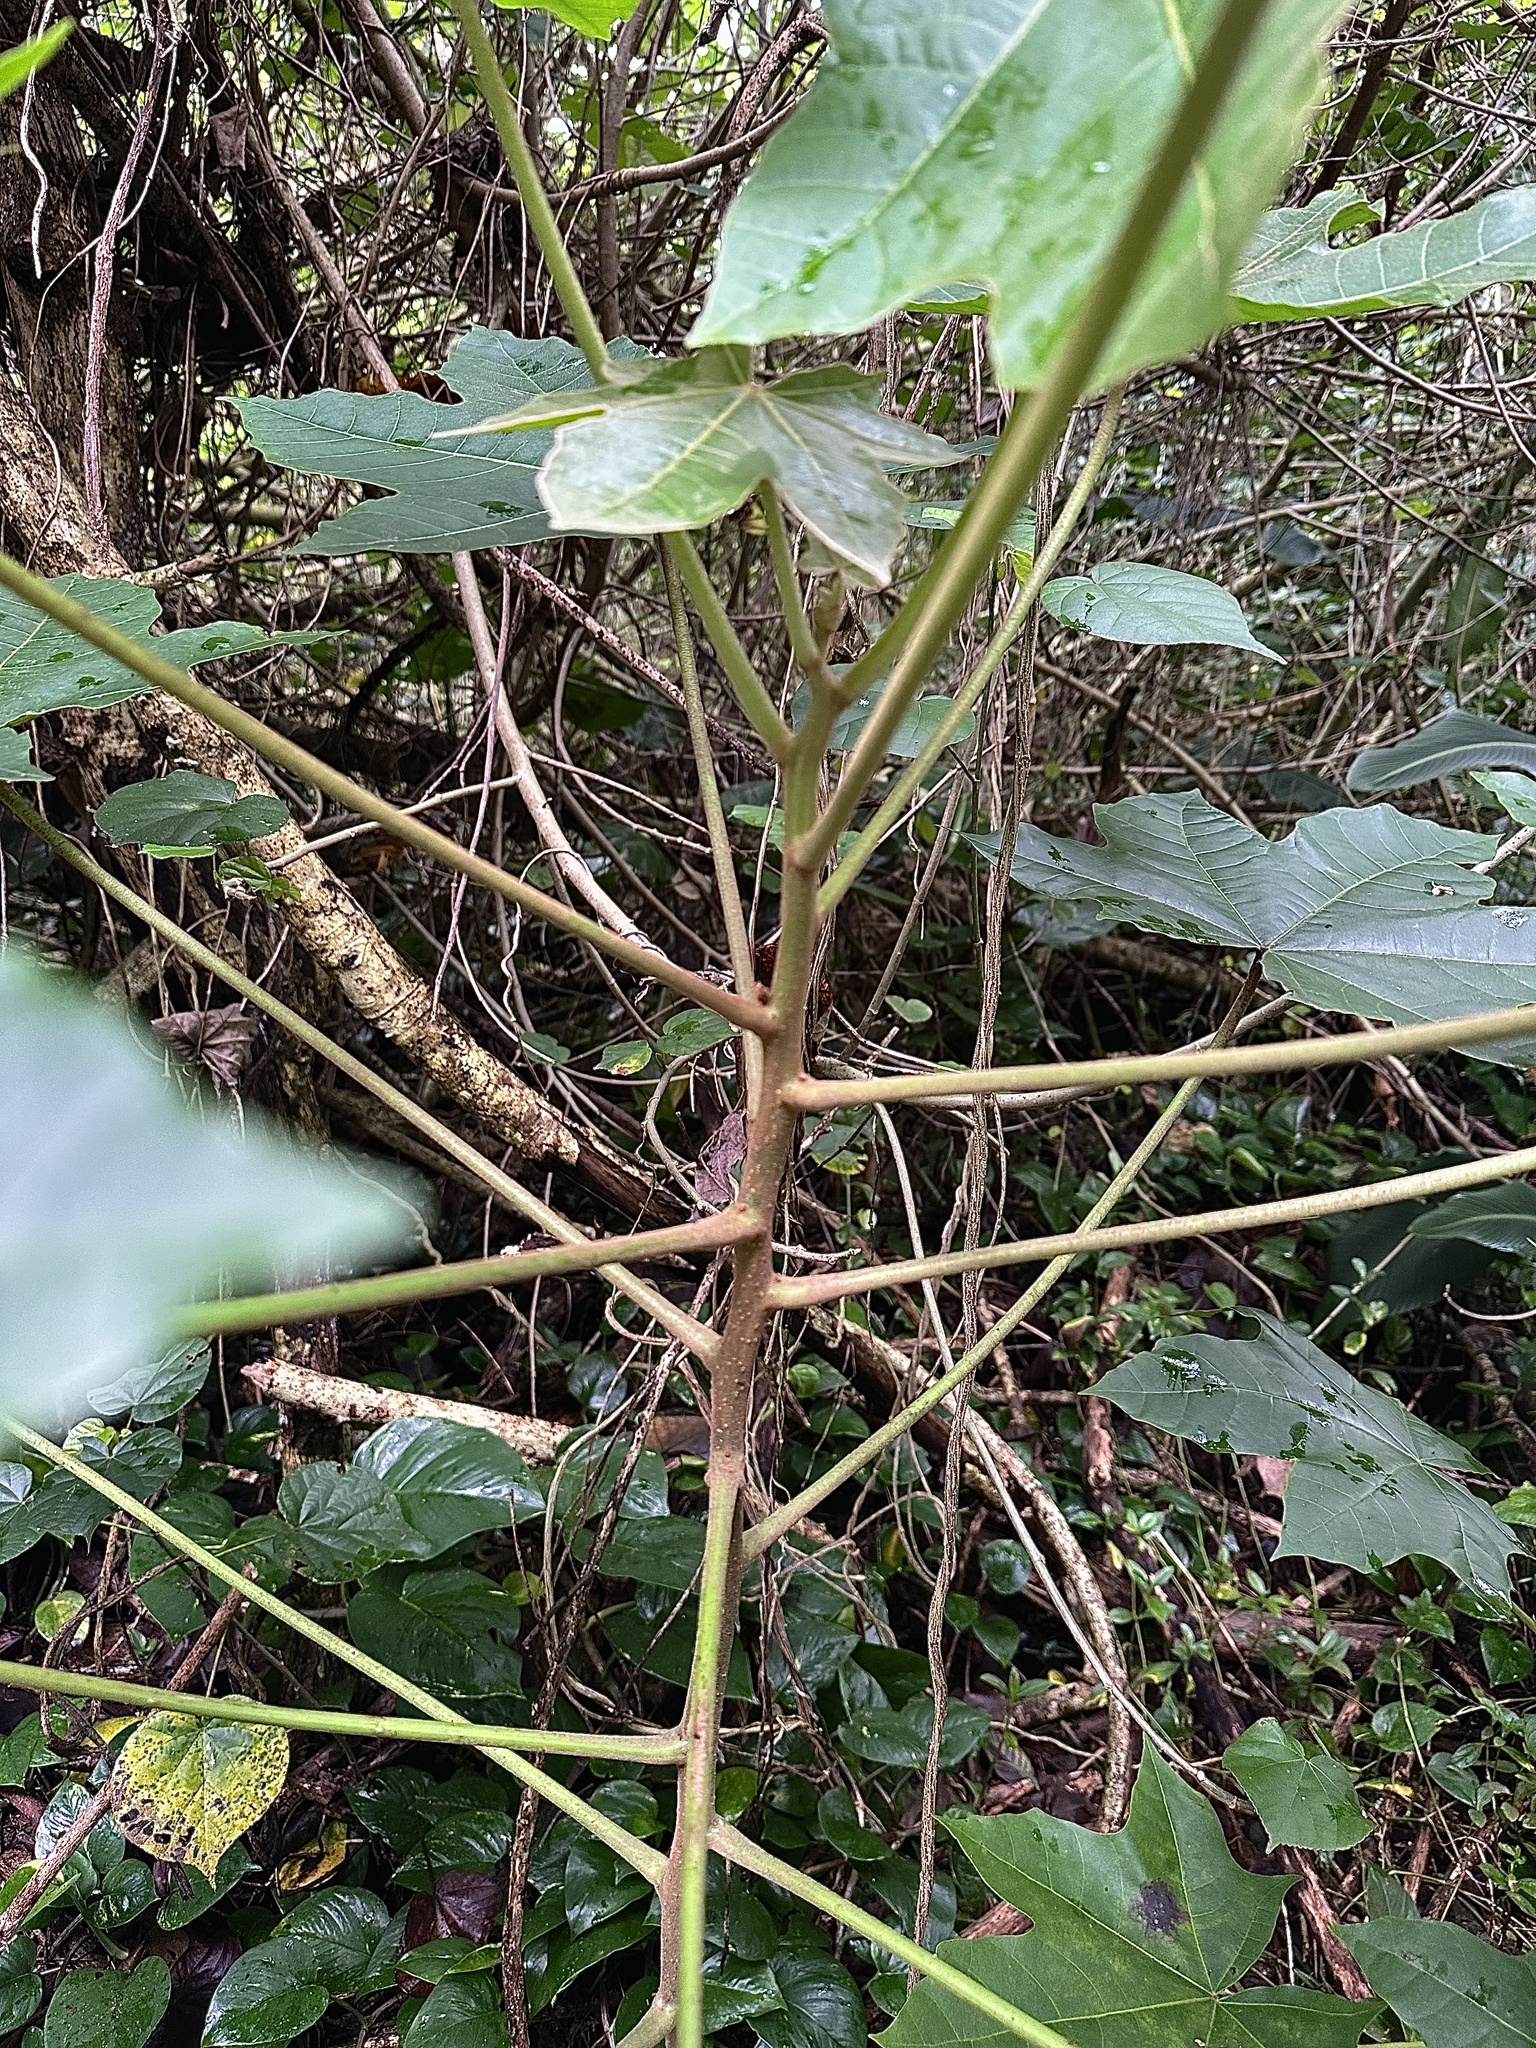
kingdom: Plantae
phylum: Tracheophyta
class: Magnoliopsida
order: Malpighiales
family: Euphorbiaceae
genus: Aleurites
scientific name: Aleurites moluccanus
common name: Candlenut tree
